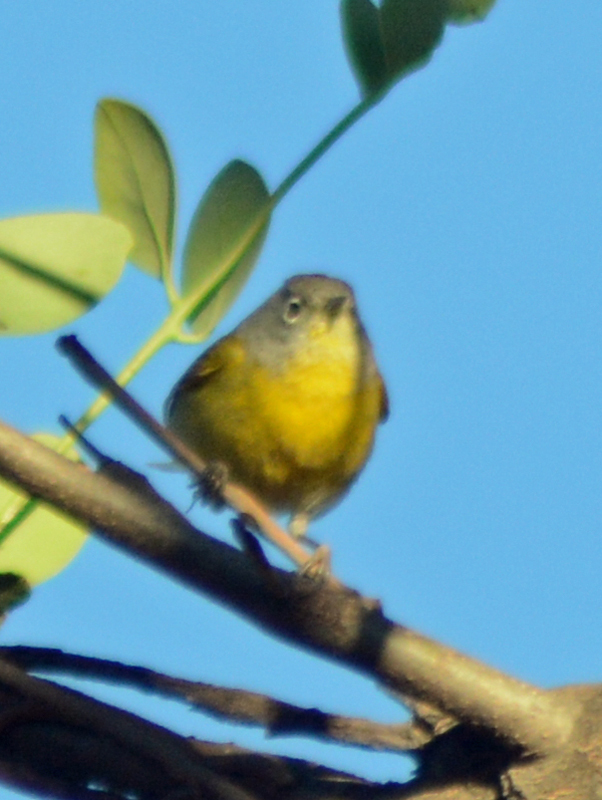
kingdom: Animalia
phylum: Chordata
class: Aves
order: Passeriformes
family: Parulidae
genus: Leiothlypis
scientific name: Leiothlypis ruficapilla
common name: Nashville warbler
